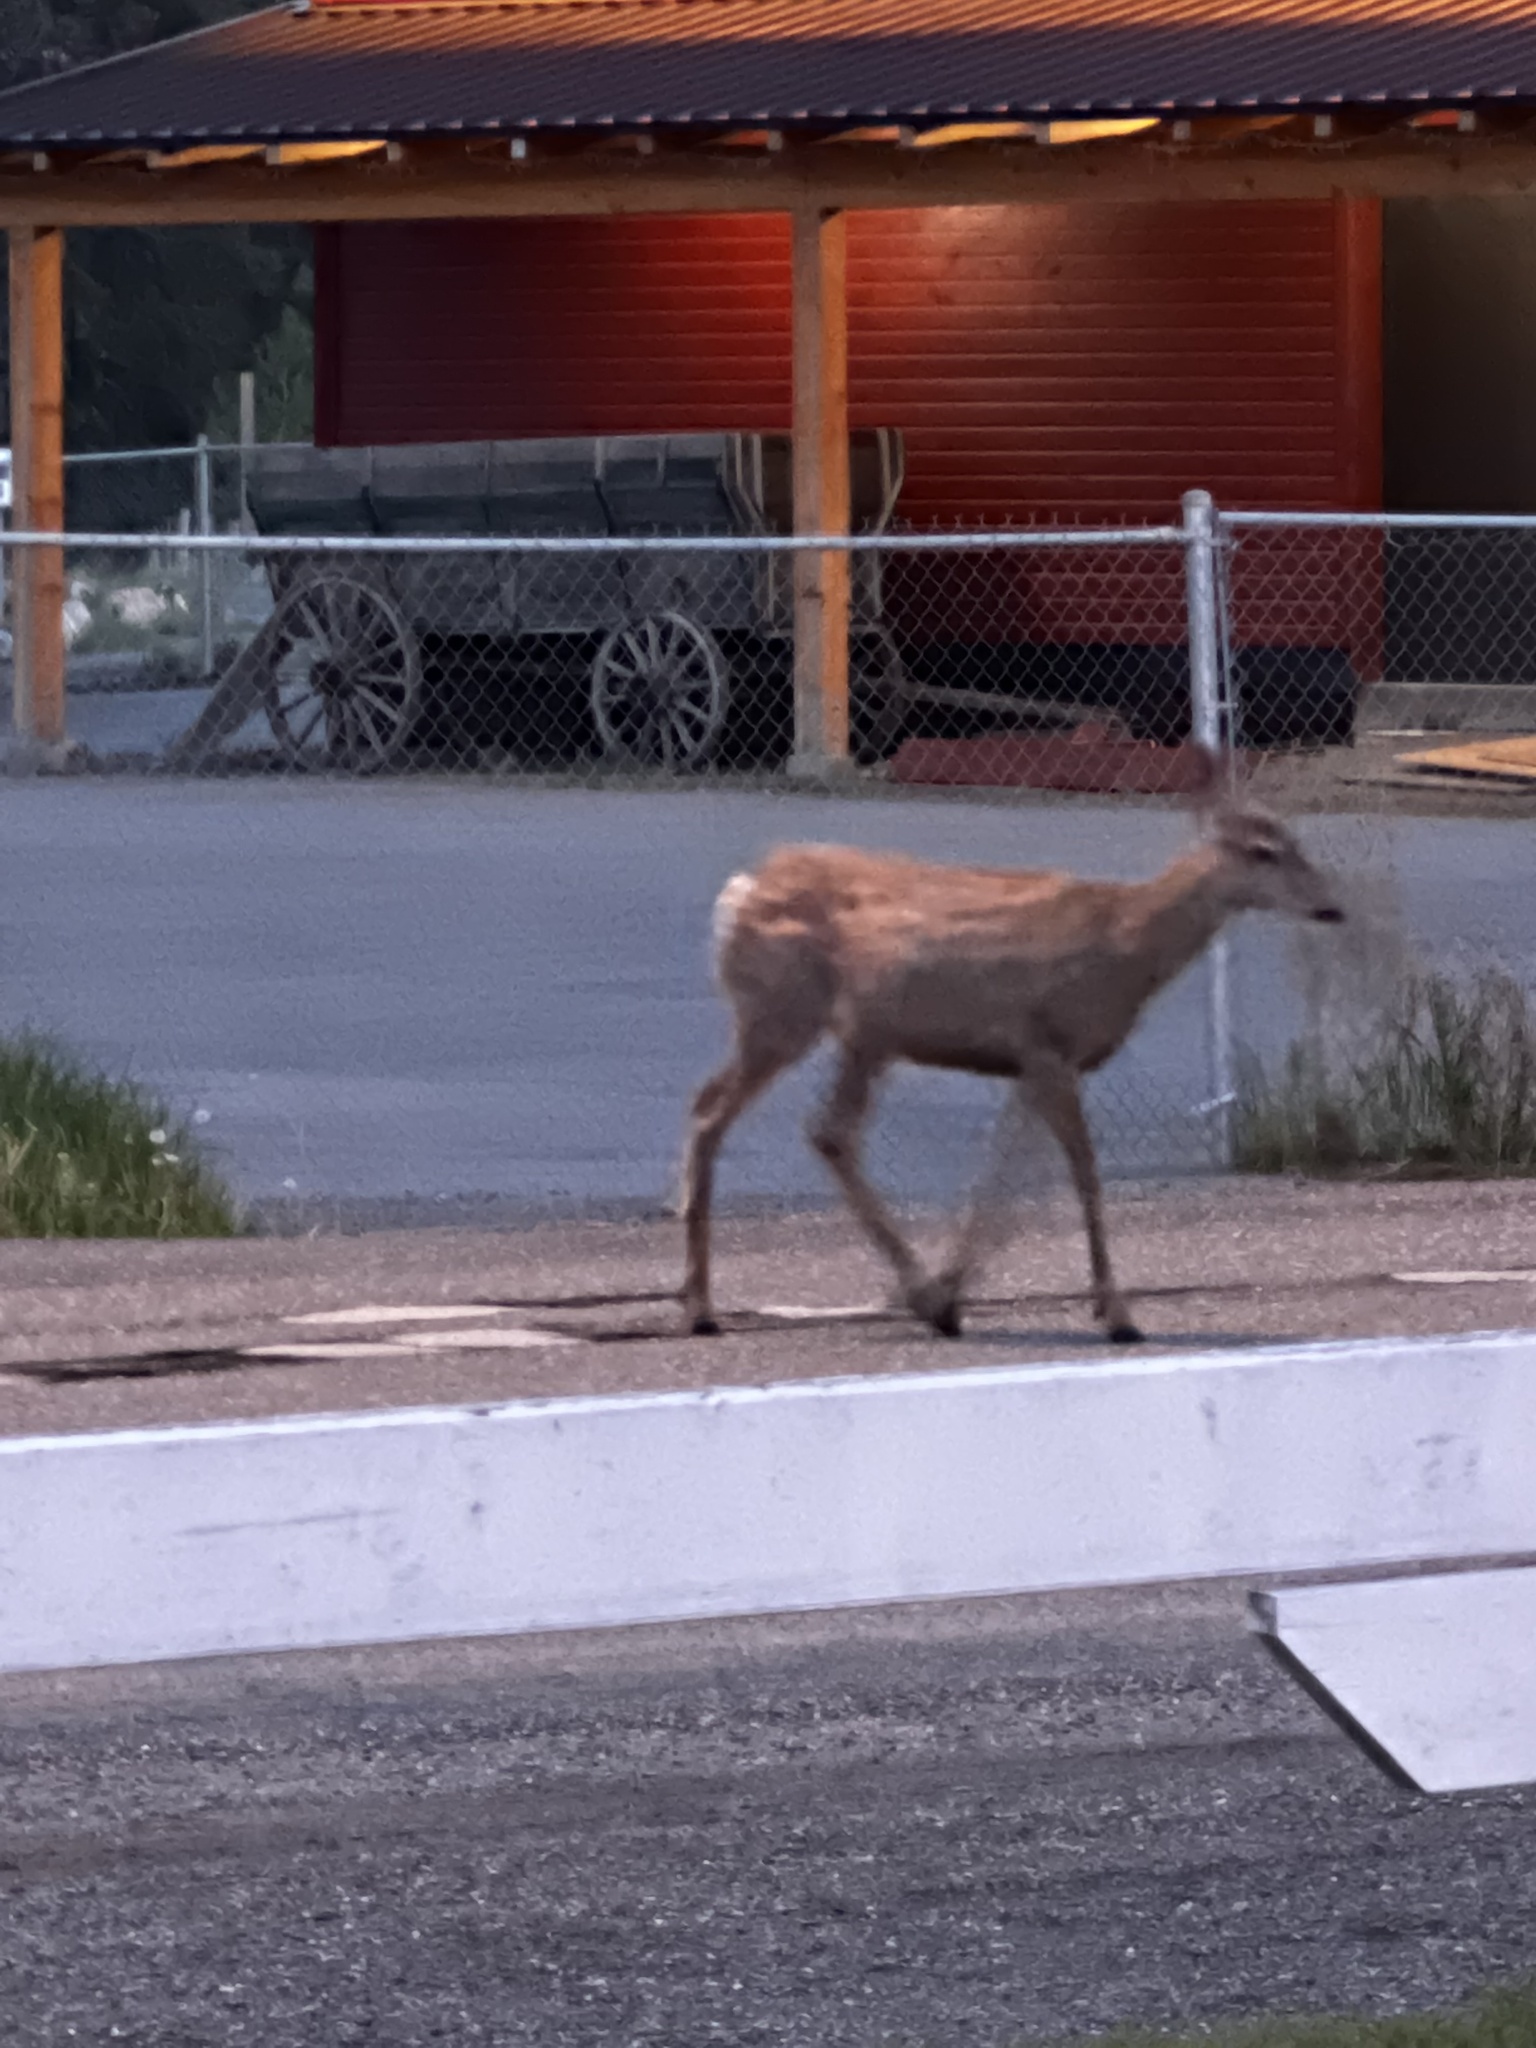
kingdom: Animalia
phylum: Chordata
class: Mammalia
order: Artiodactyla
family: Cervidae
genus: Odocoileus
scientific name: Odocoileus hemionus
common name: Mule deer
